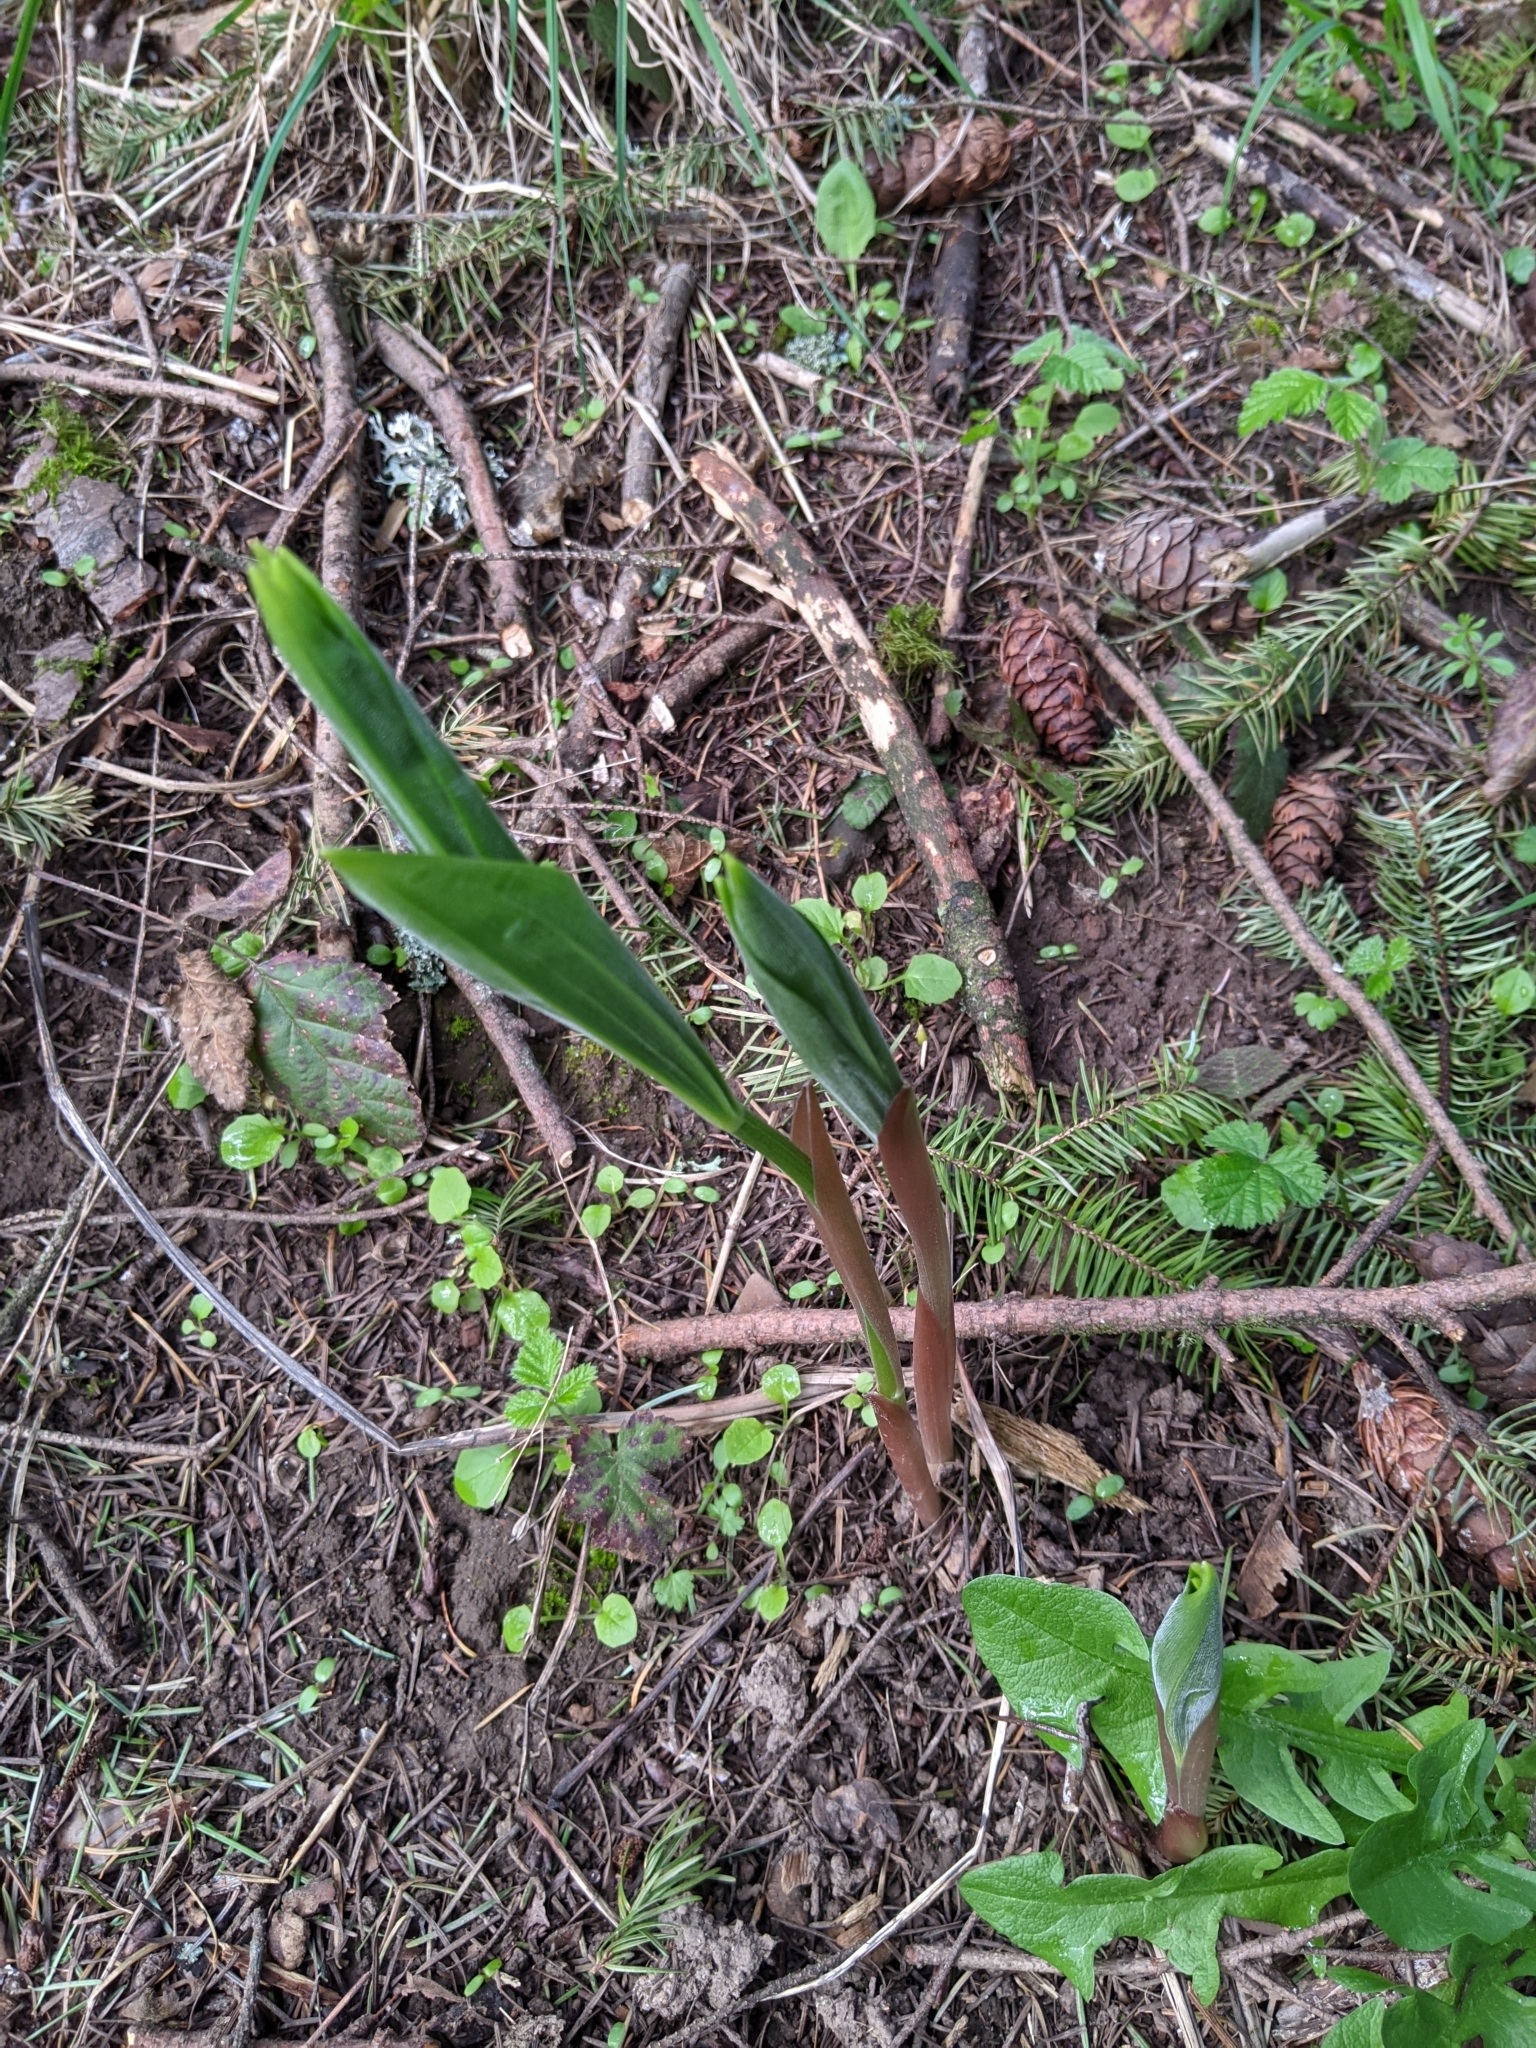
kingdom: Plantae
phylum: Tracheophyta
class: Liliopsida
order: Asparagales
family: Asparagaceae
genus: Maianthemum
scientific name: Maianthemum racemosum
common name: False spikenard
